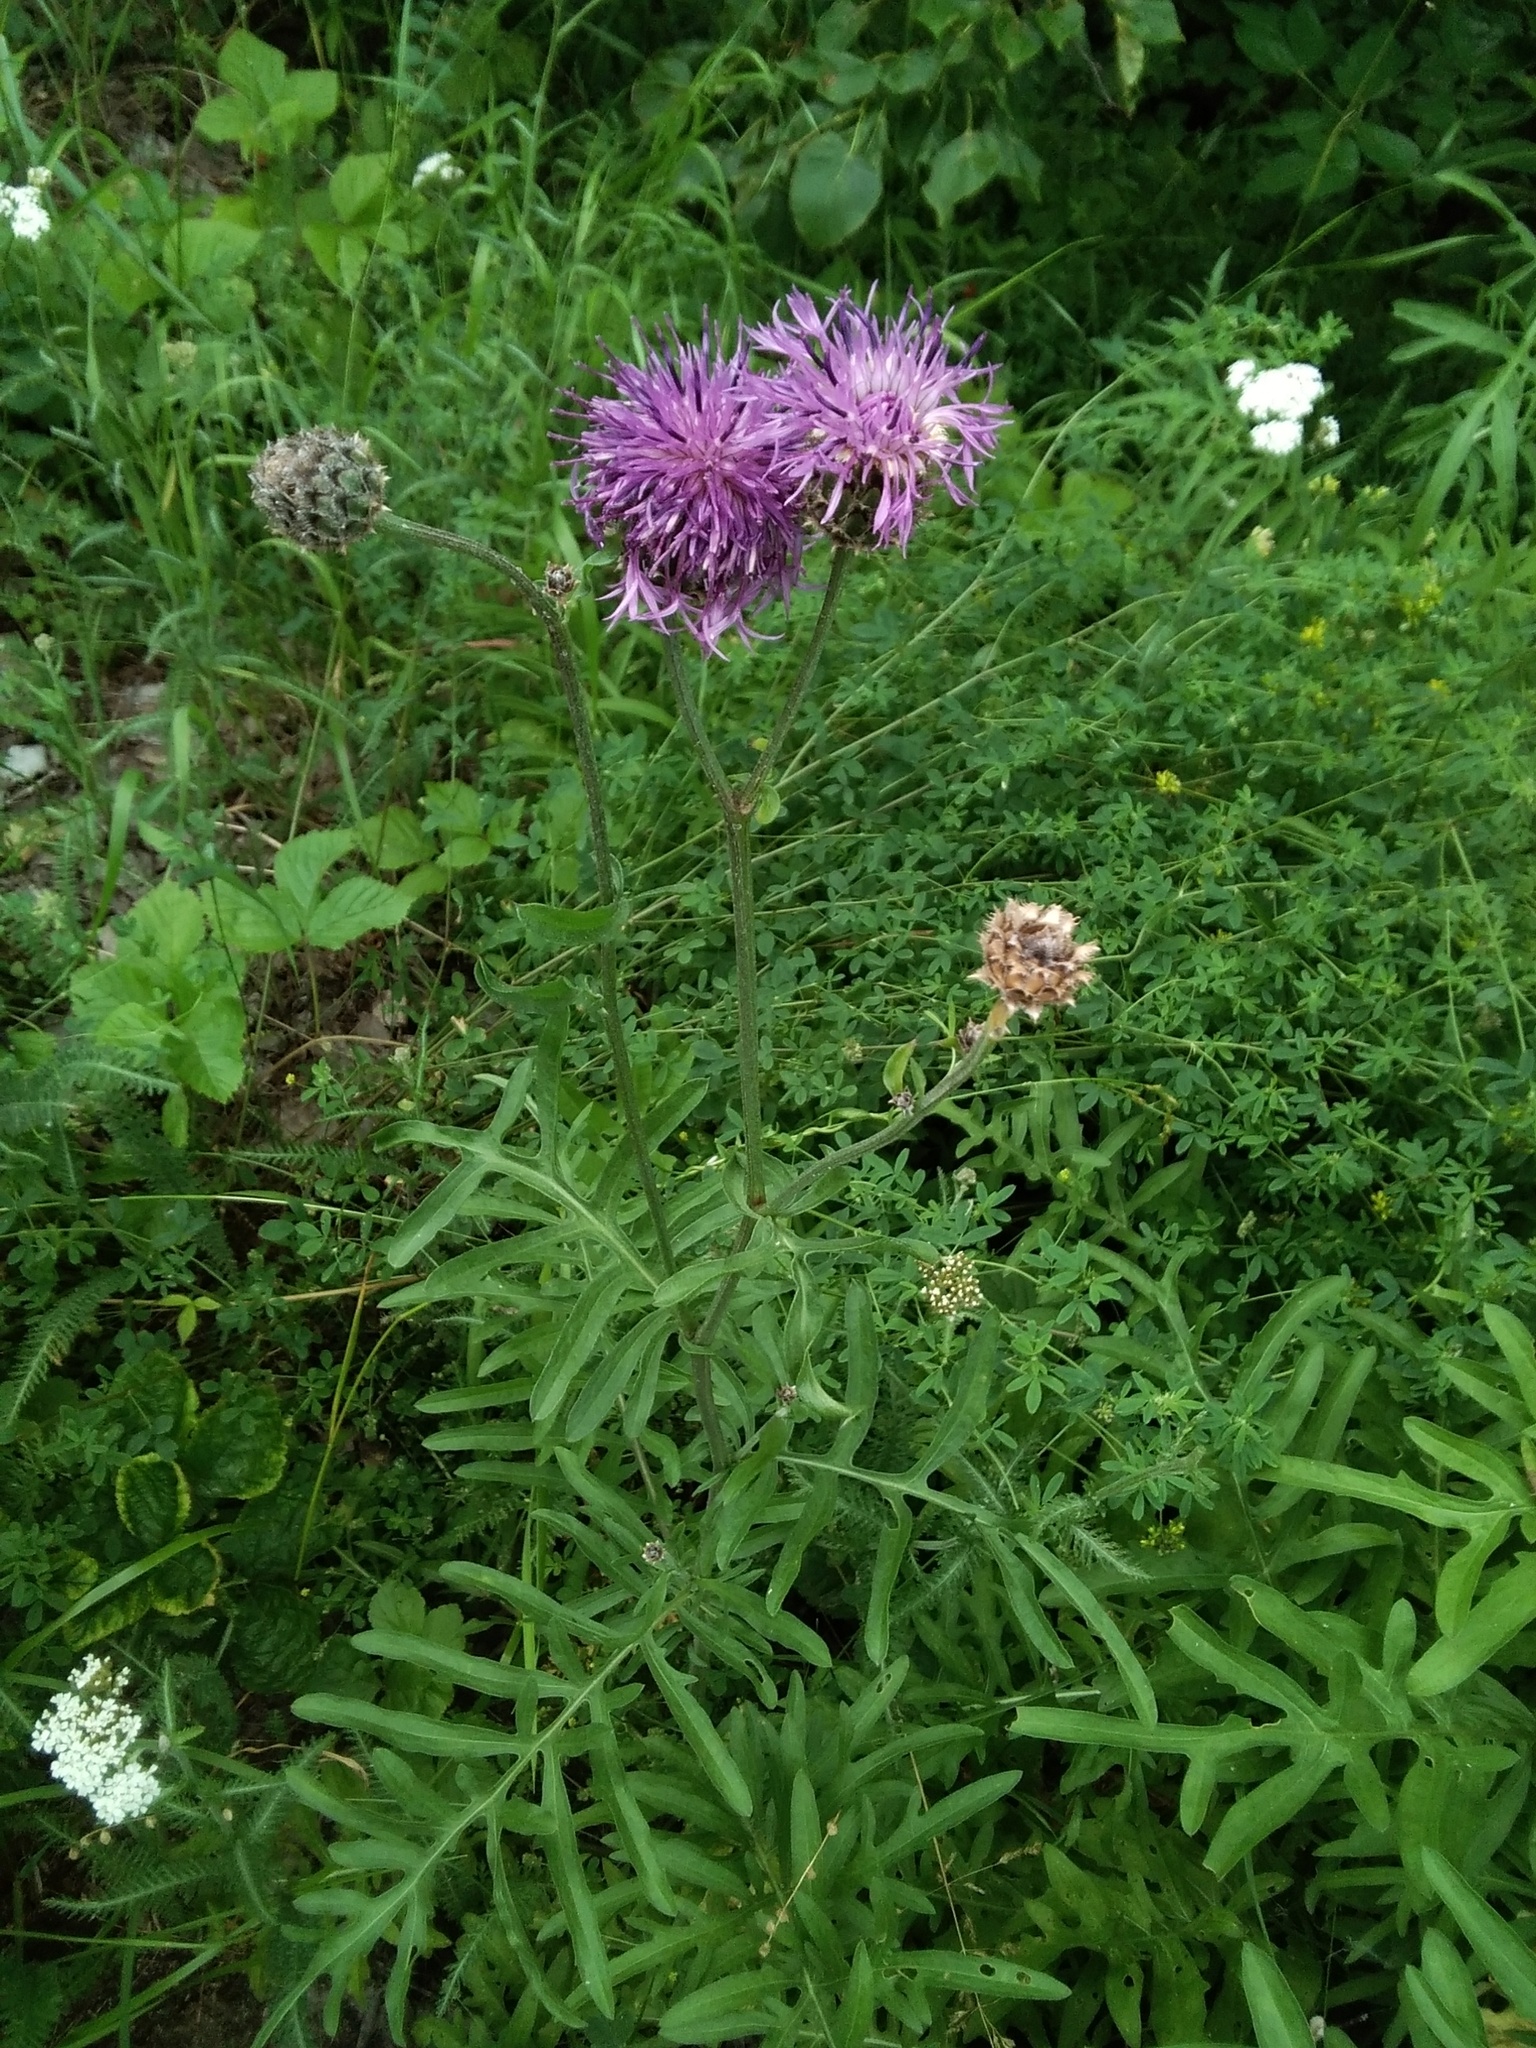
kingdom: Plantae
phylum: Tracheophyta
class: Magnoliopsida
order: Asterales
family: Asteraceae
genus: Centaurea
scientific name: Centaurea scabiosa
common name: Greater knapweed
